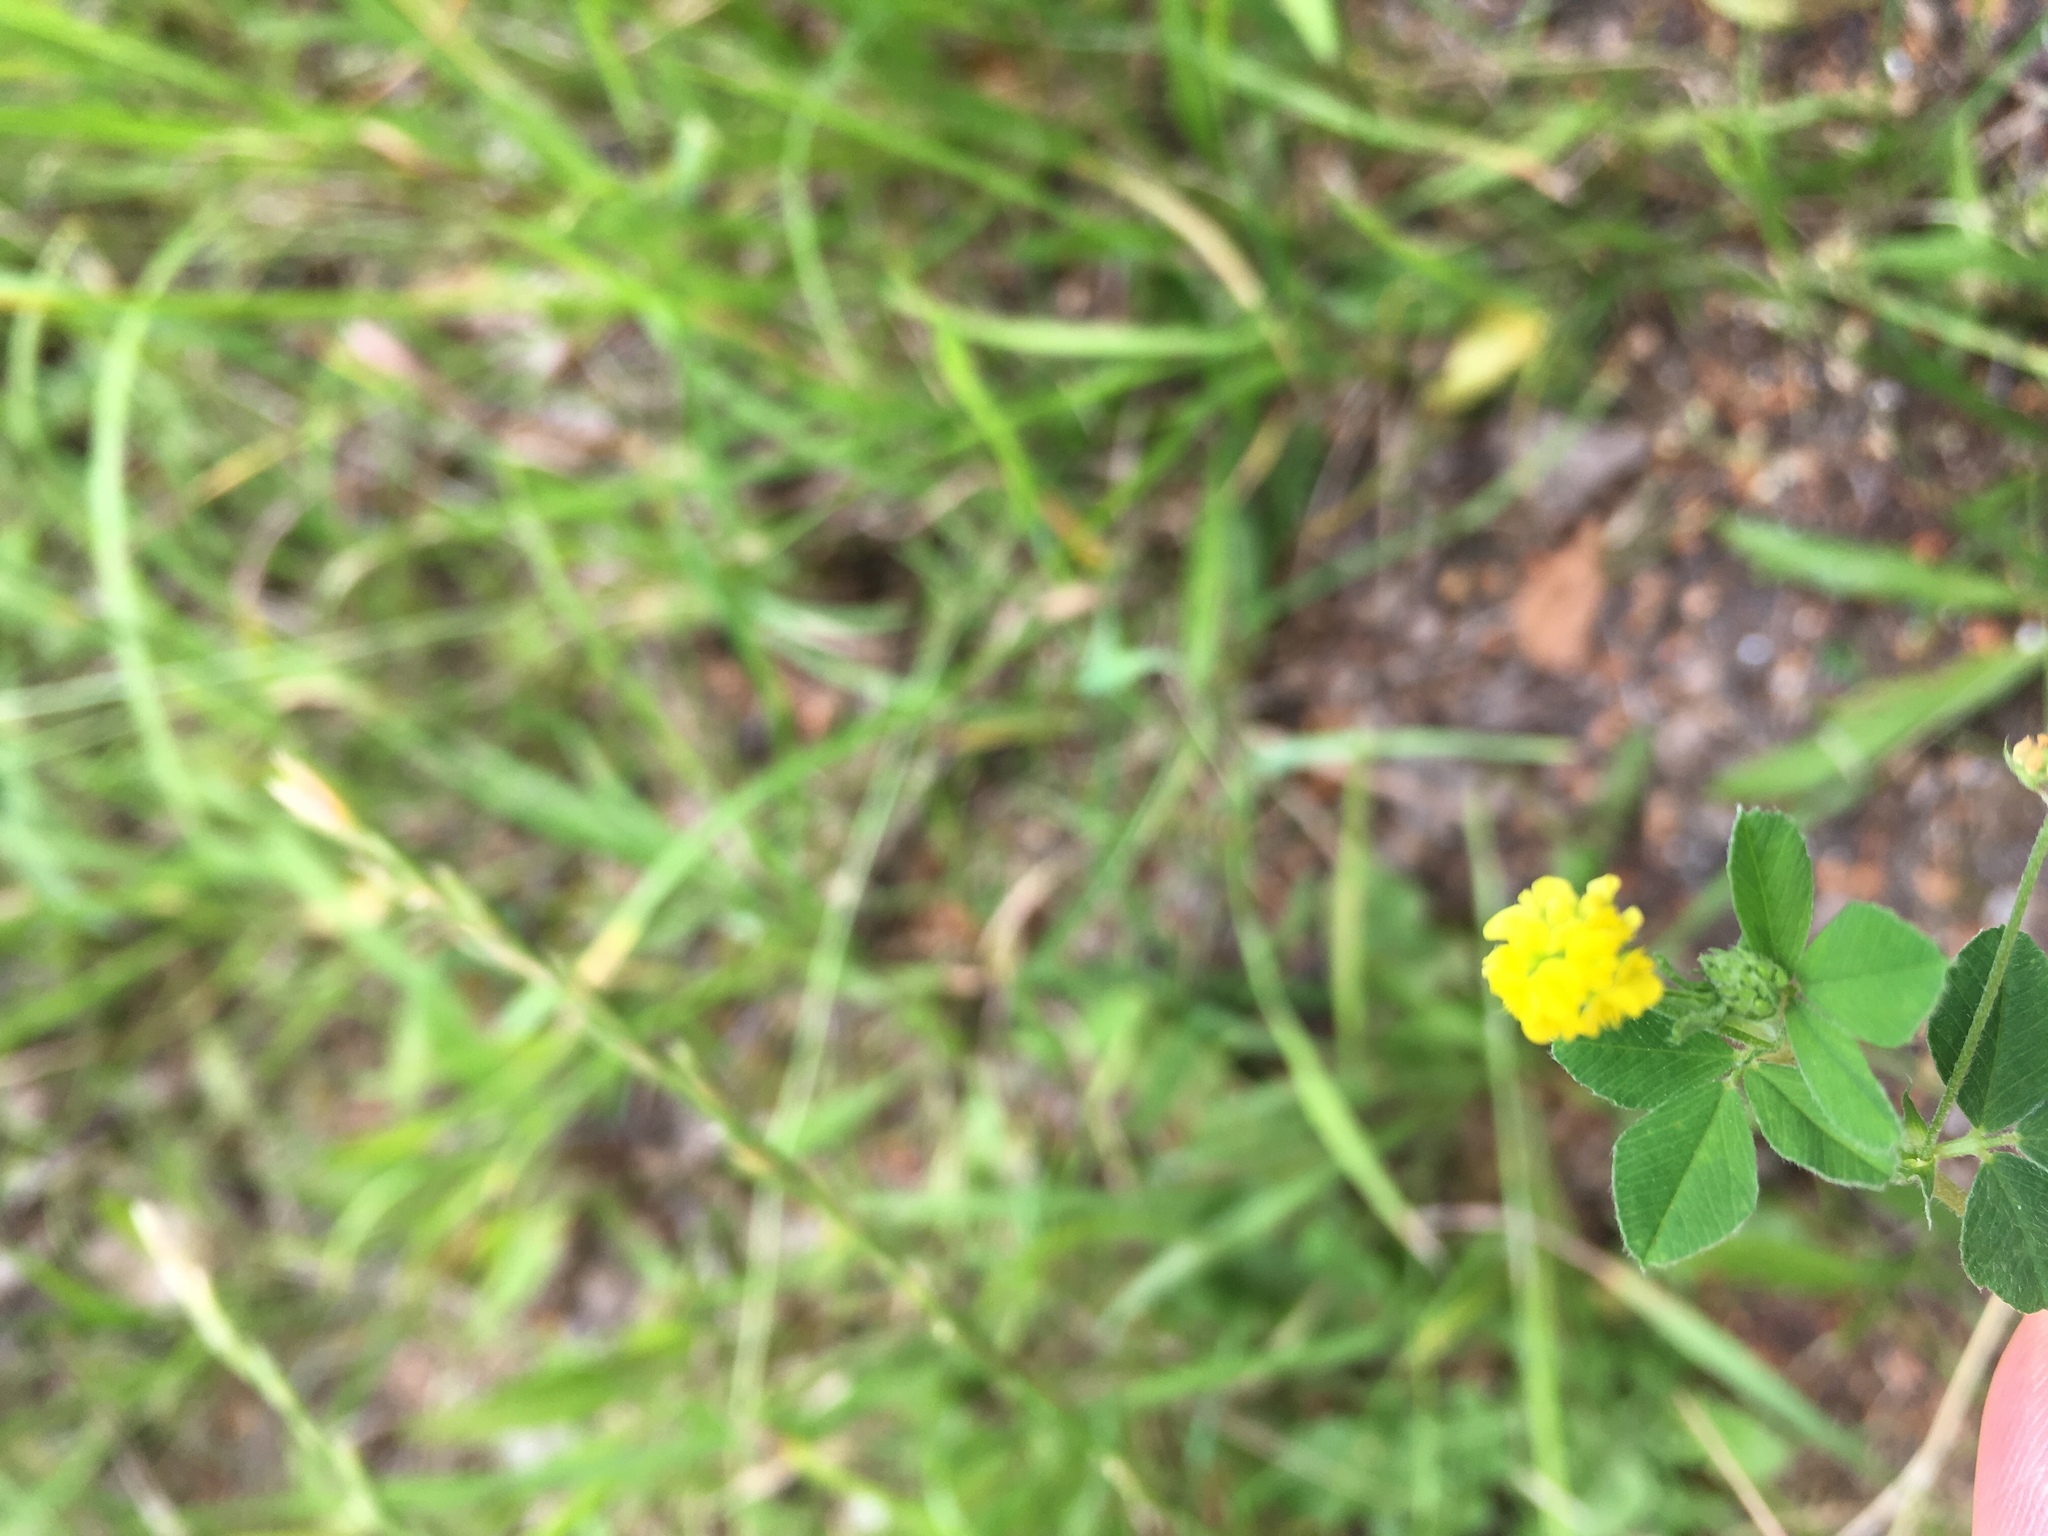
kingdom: Plantae
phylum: Tracheophyta
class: Magnoliopsida
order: Fabales
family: Fabaceae
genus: Medicago
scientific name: Medicago lupulina
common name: Black medick
